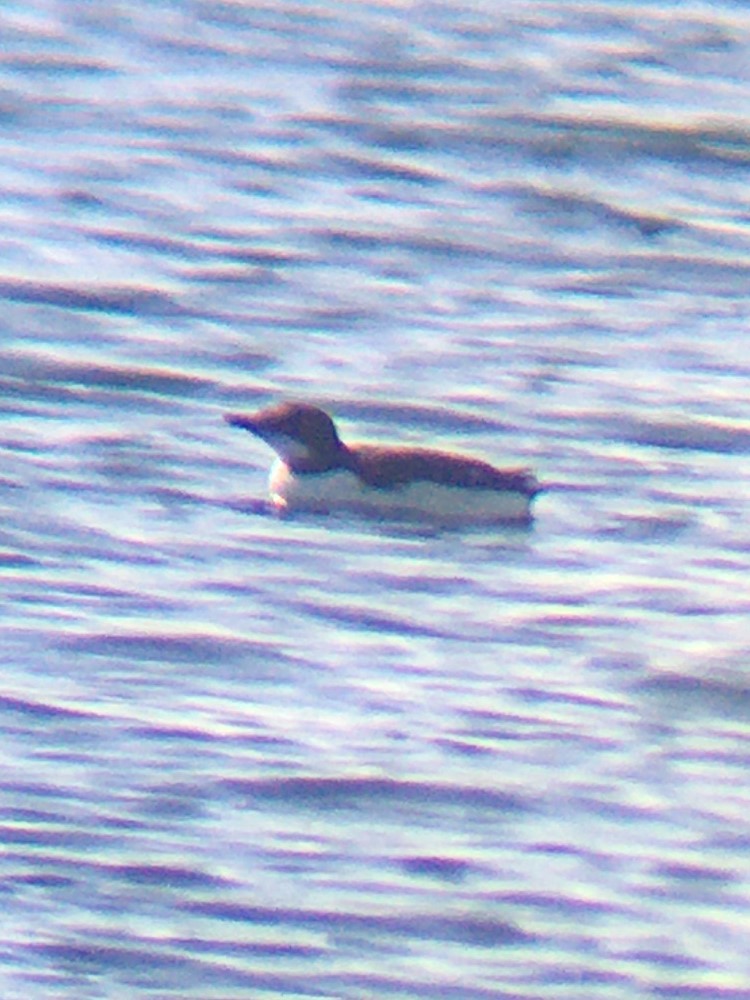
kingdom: Animalia
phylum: Chordata
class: Aves
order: Charadriiformes
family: Alcidae
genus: Uria
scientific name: Uria lomvia
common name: Thick-billed murre
